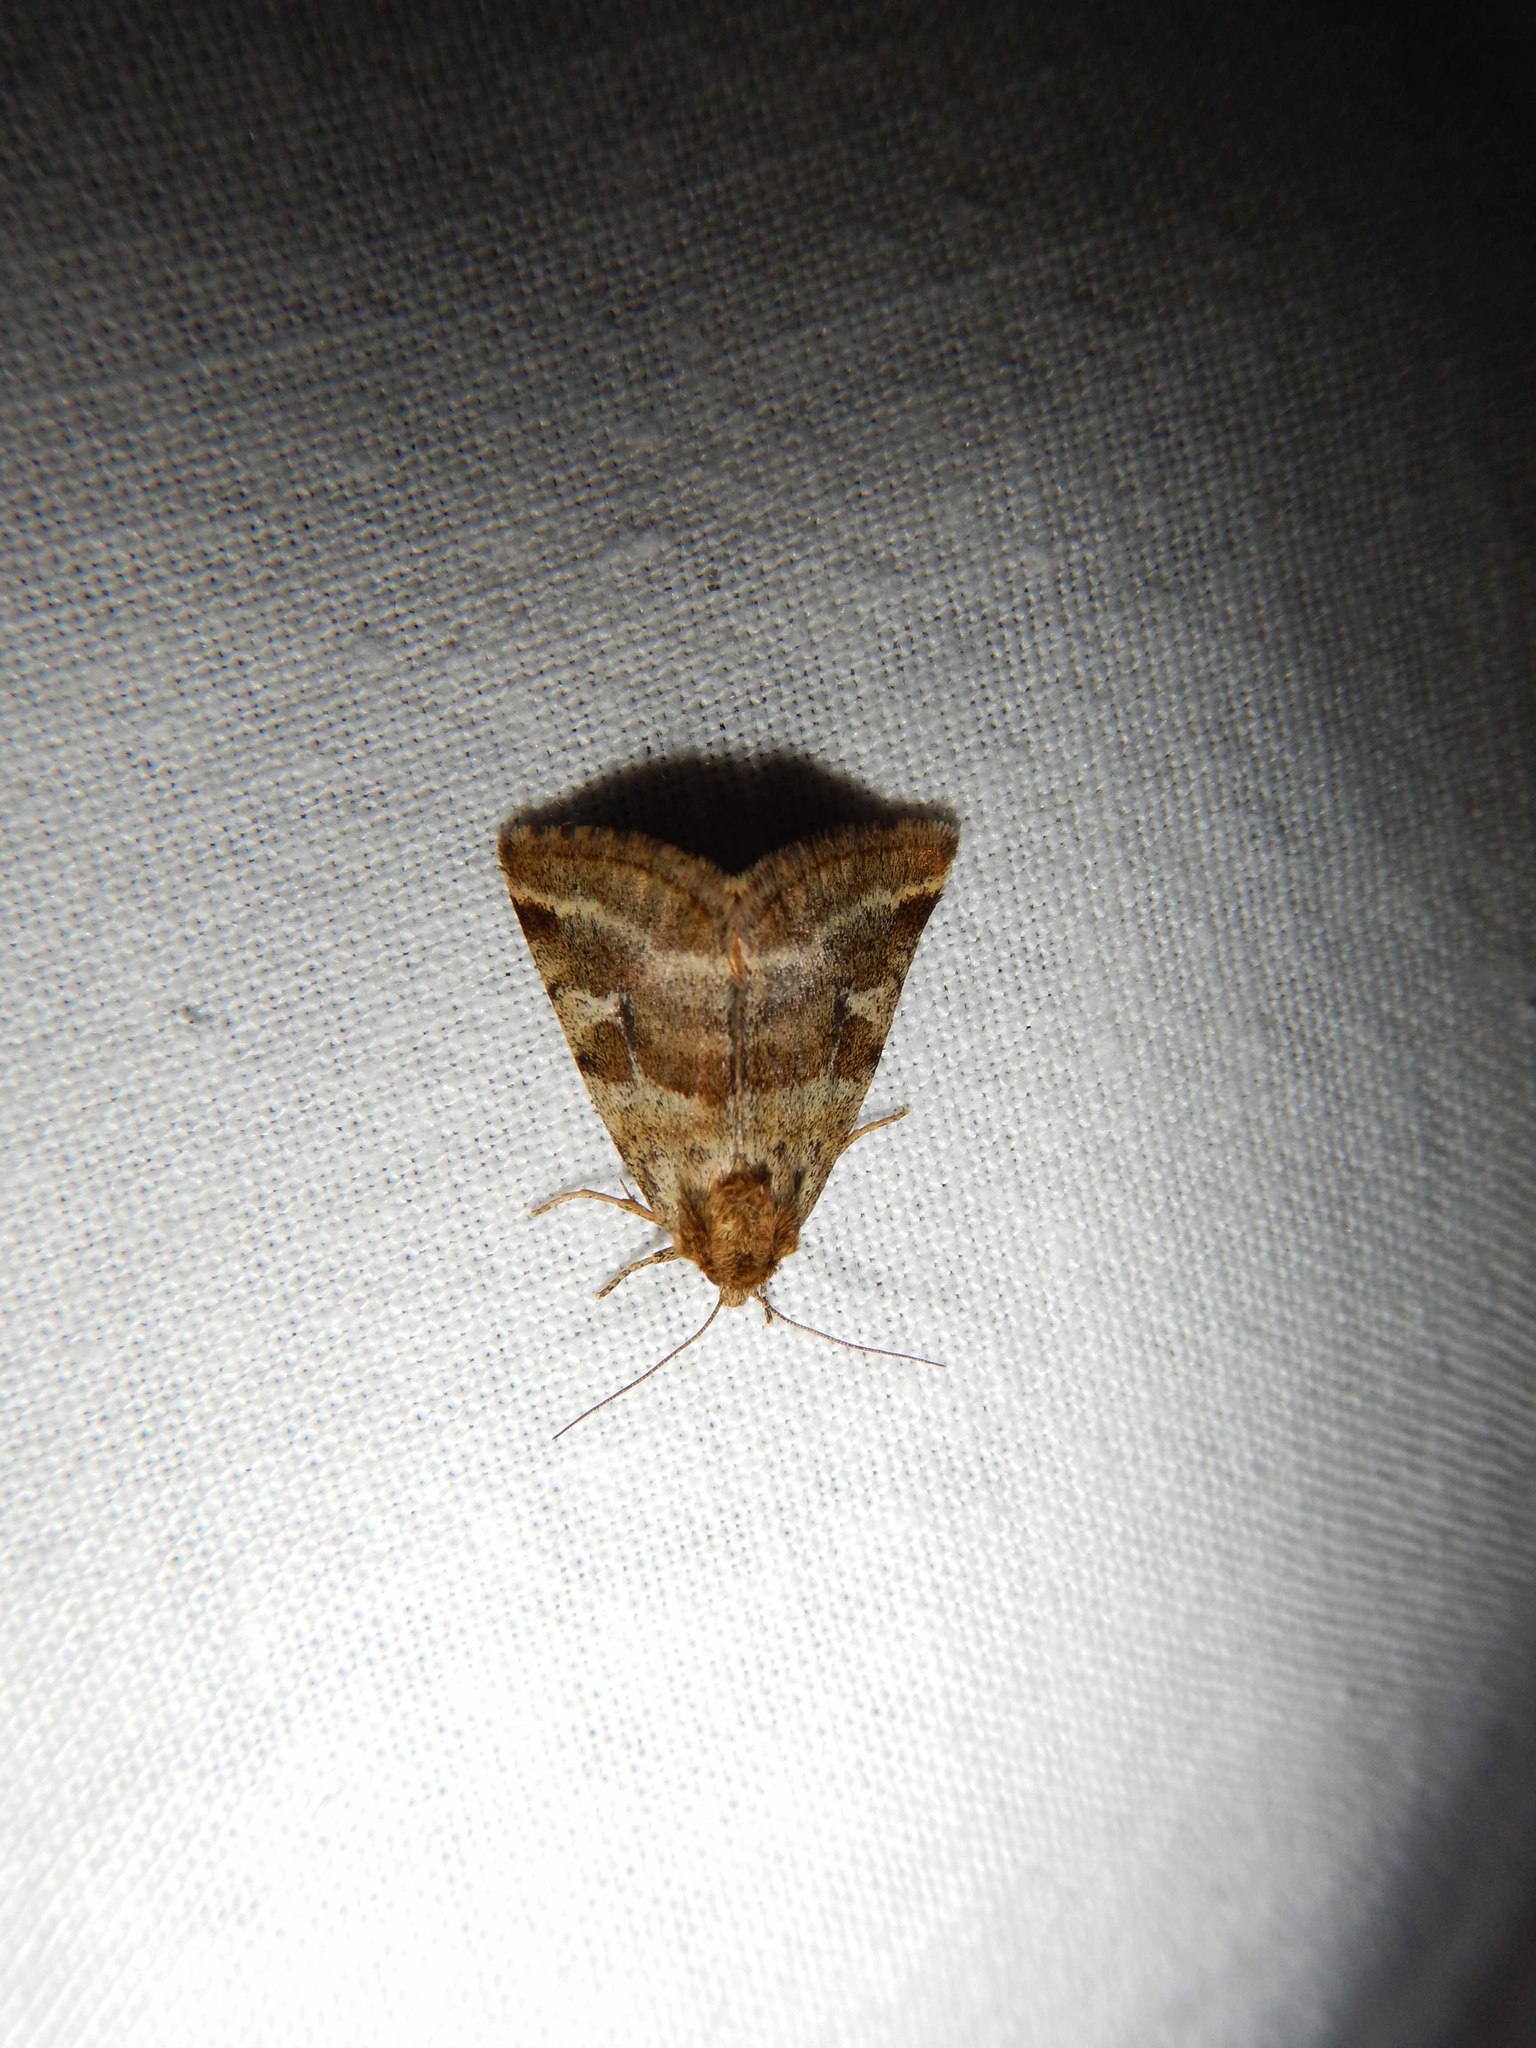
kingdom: Animalia
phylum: Arthropoda
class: Insecta
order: Lepidoptera
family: Noctuidae
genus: Synthymia
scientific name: Synthymia fixa
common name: Goldwing
